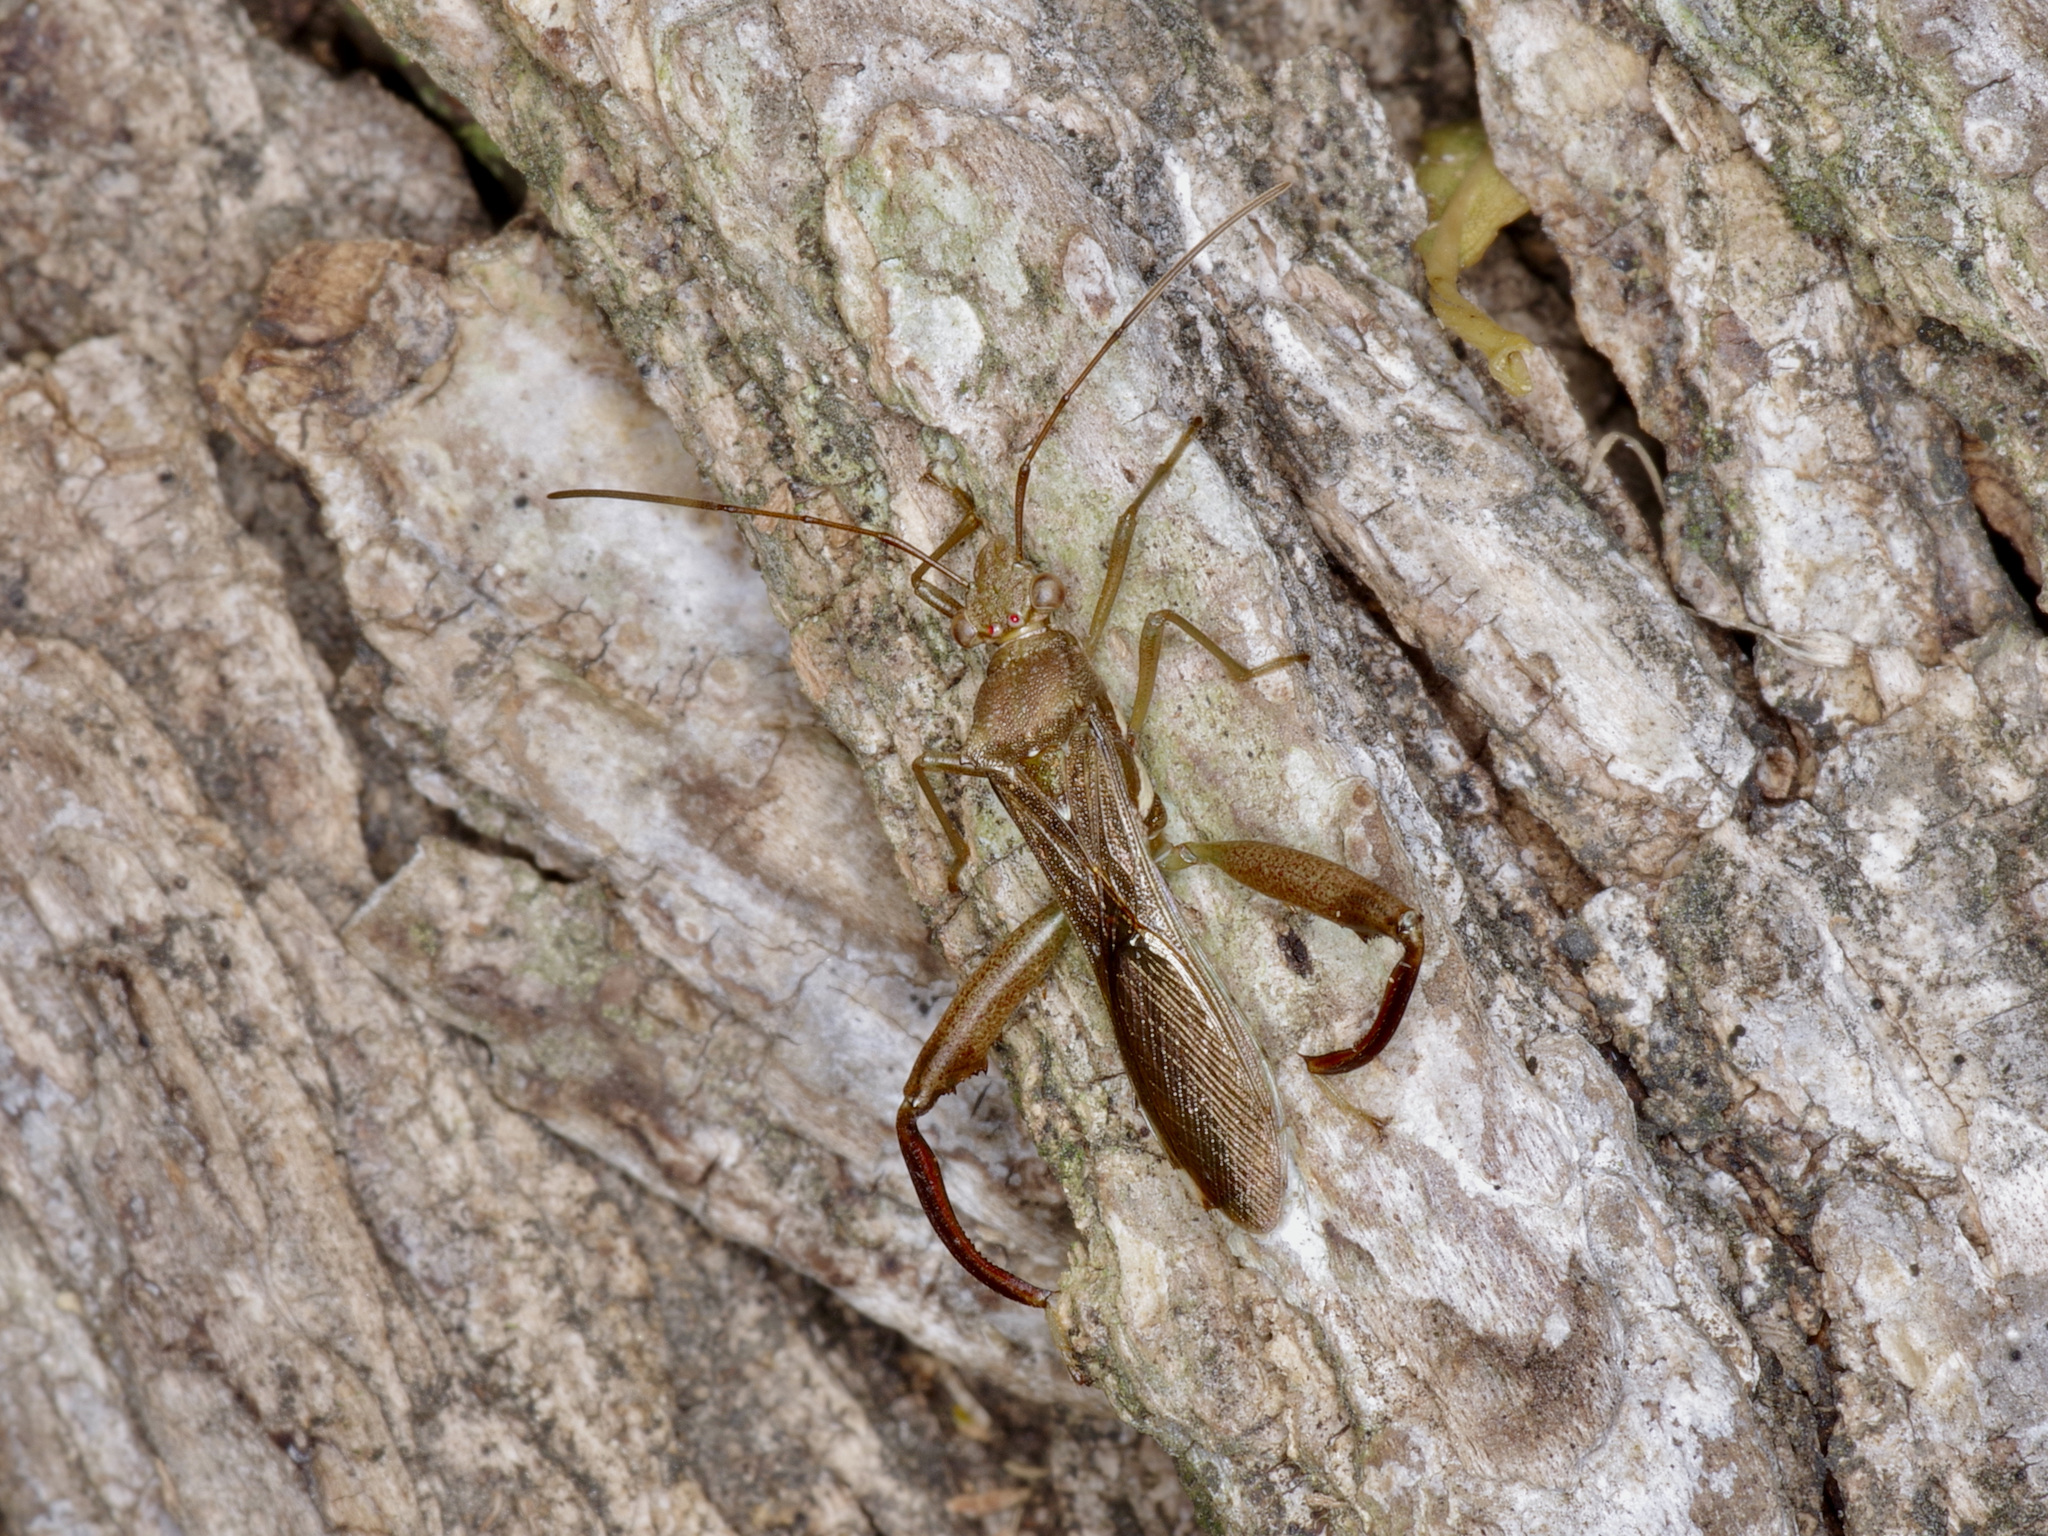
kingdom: Animalia
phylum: Arthropoda
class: Insecta
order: Hemiptera
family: Alydidae
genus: Hyalymenus
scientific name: Hyalymenus tarsatus
